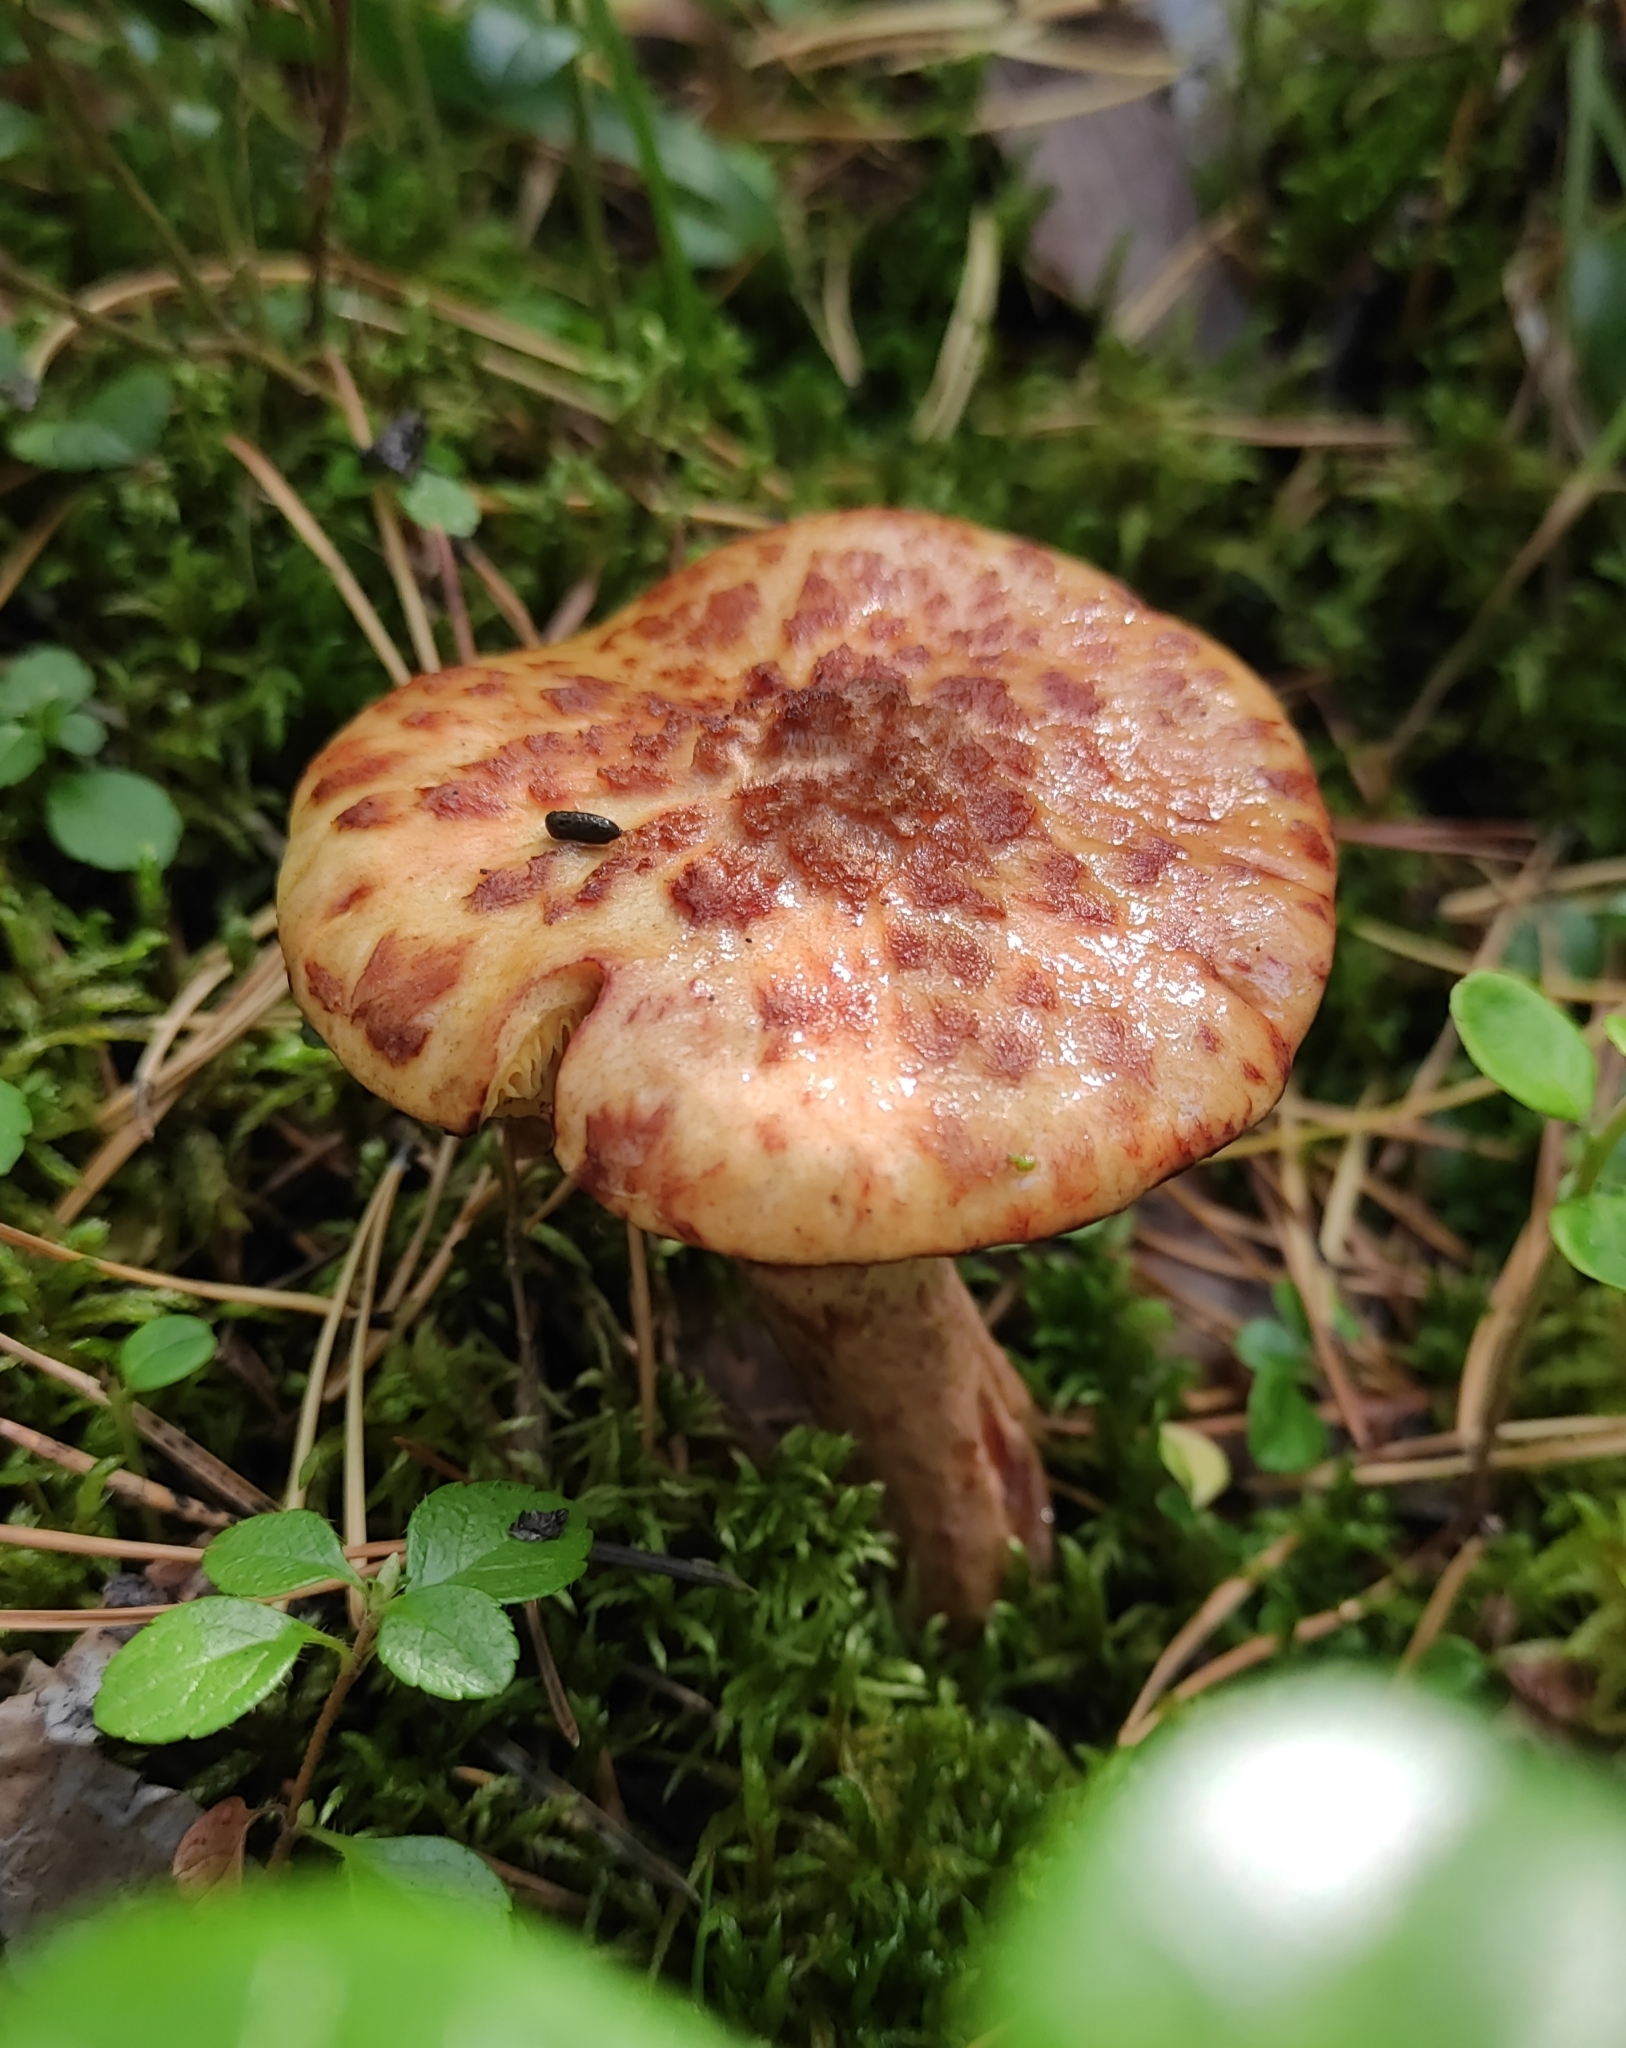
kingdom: Fungi
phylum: Basidiomycota
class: Agaricomycetes
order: Boletales
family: Suillaceae
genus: Suillus
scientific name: Suillus cavipes
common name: Hollow bolete
